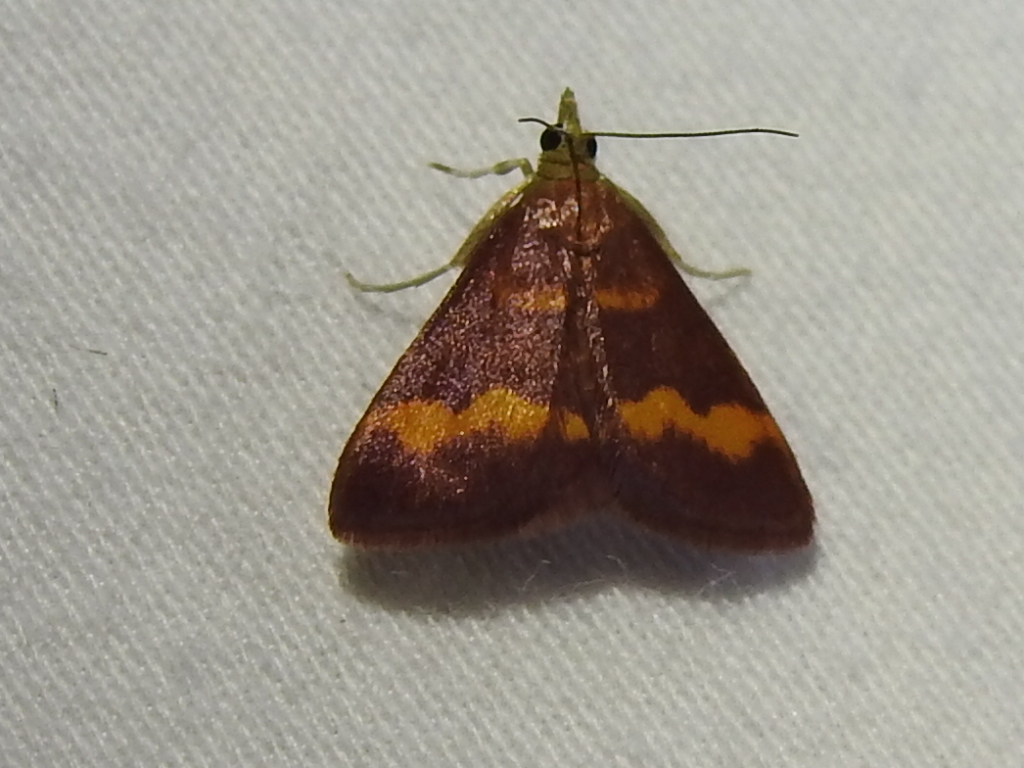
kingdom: Animalia
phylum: Arthropoda
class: Insecta
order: Lepidoptera
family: Crambidae
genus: Pyrausta
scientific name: Pyrausta pseuderosnealis
